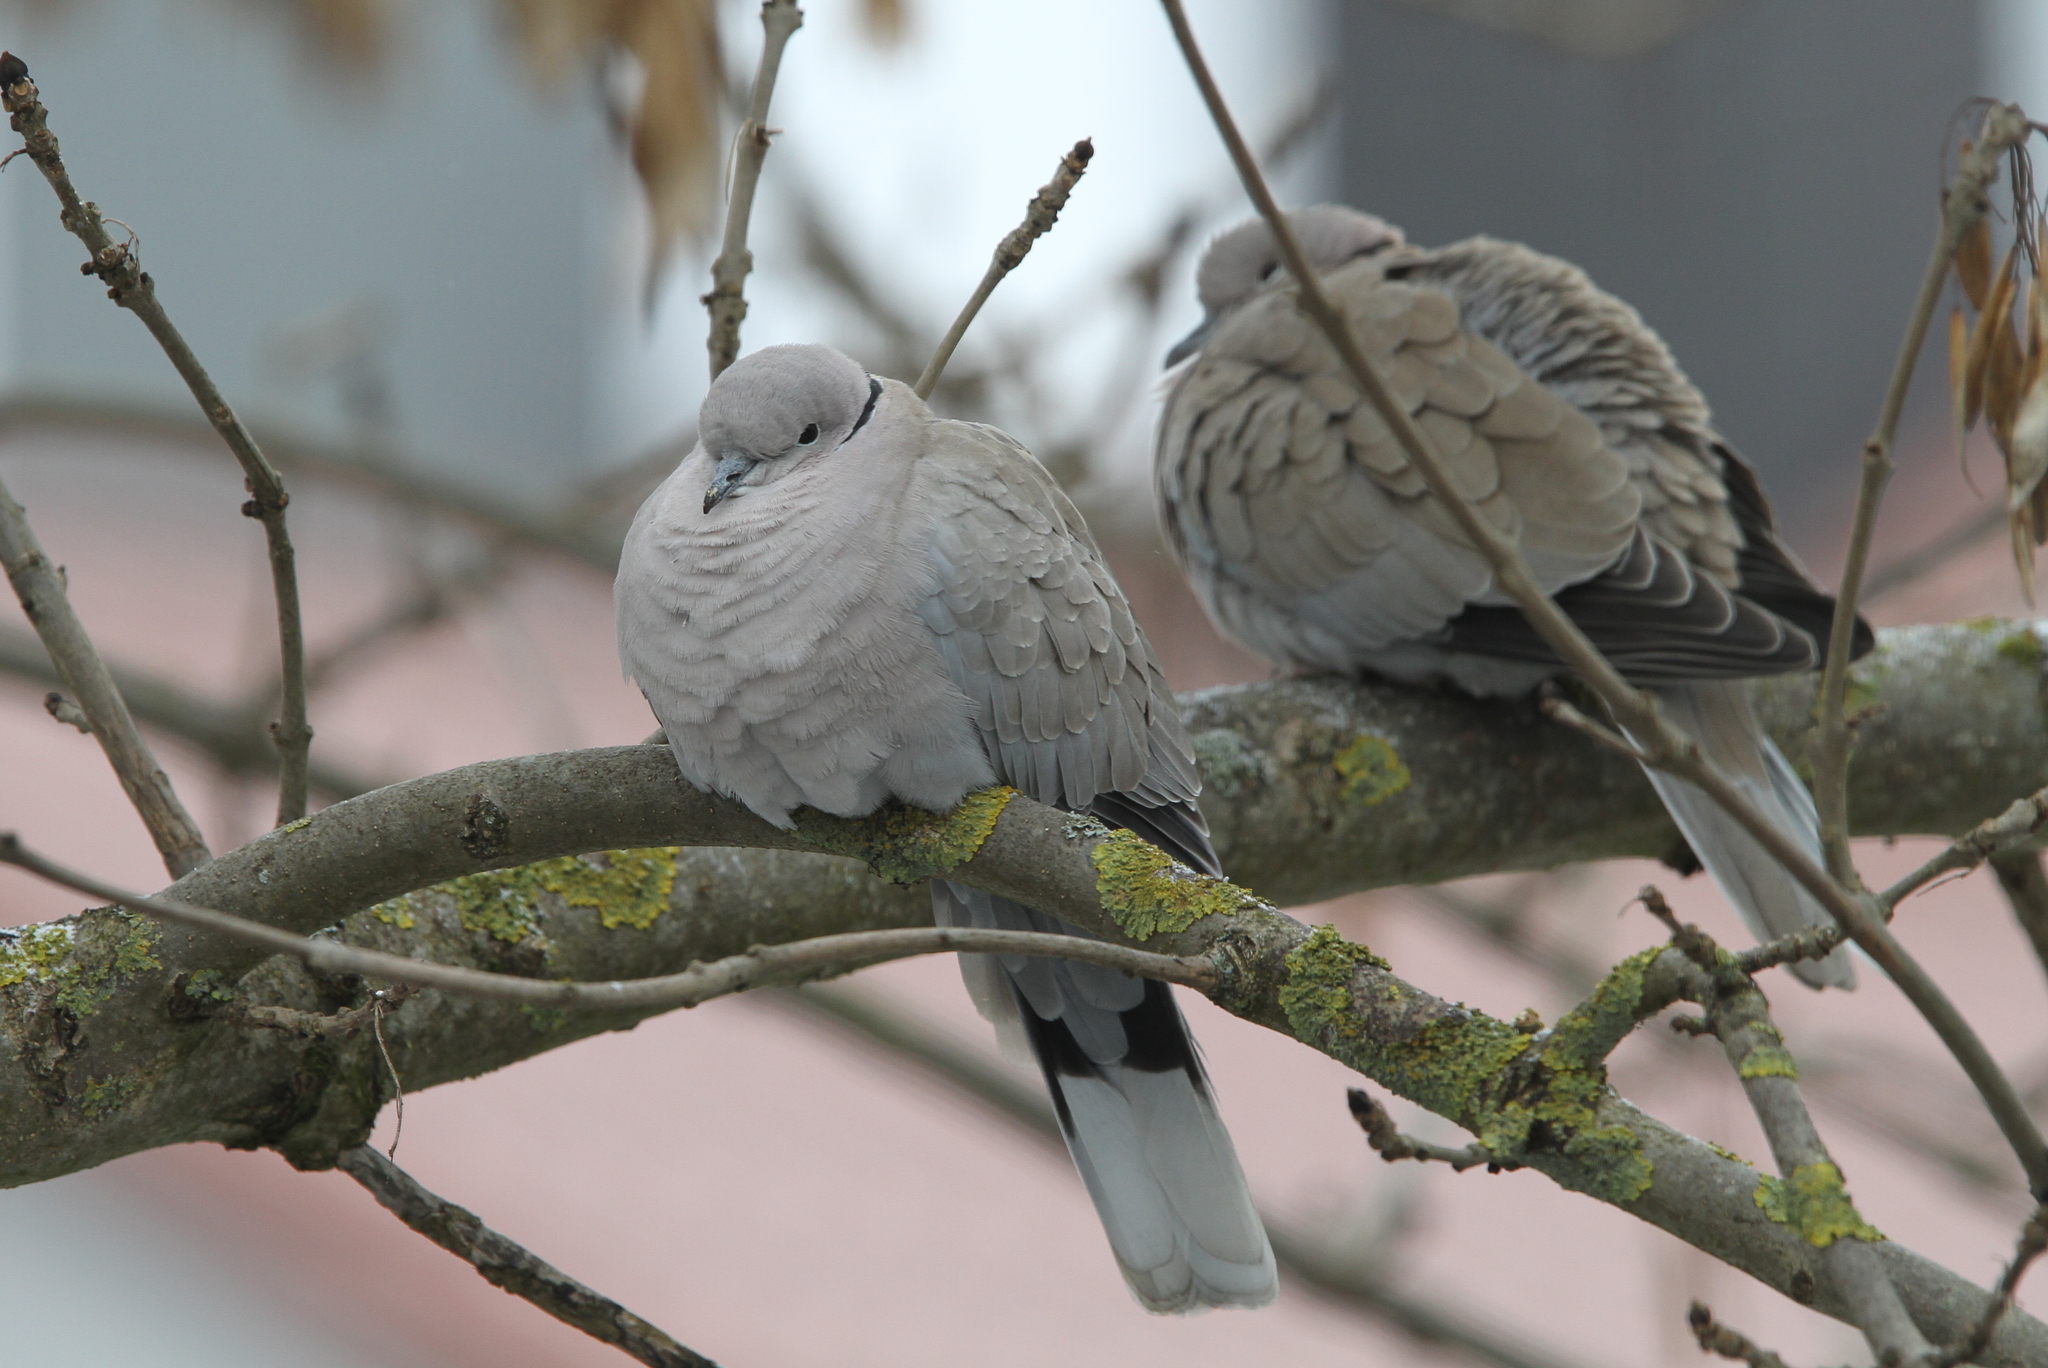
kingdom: Animalia
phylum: Chordata
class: Aves
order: Columbiformes
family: Columbidae
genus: Streptopelia
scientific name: Streptopelia decaocto
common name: Eurasian collared dove
